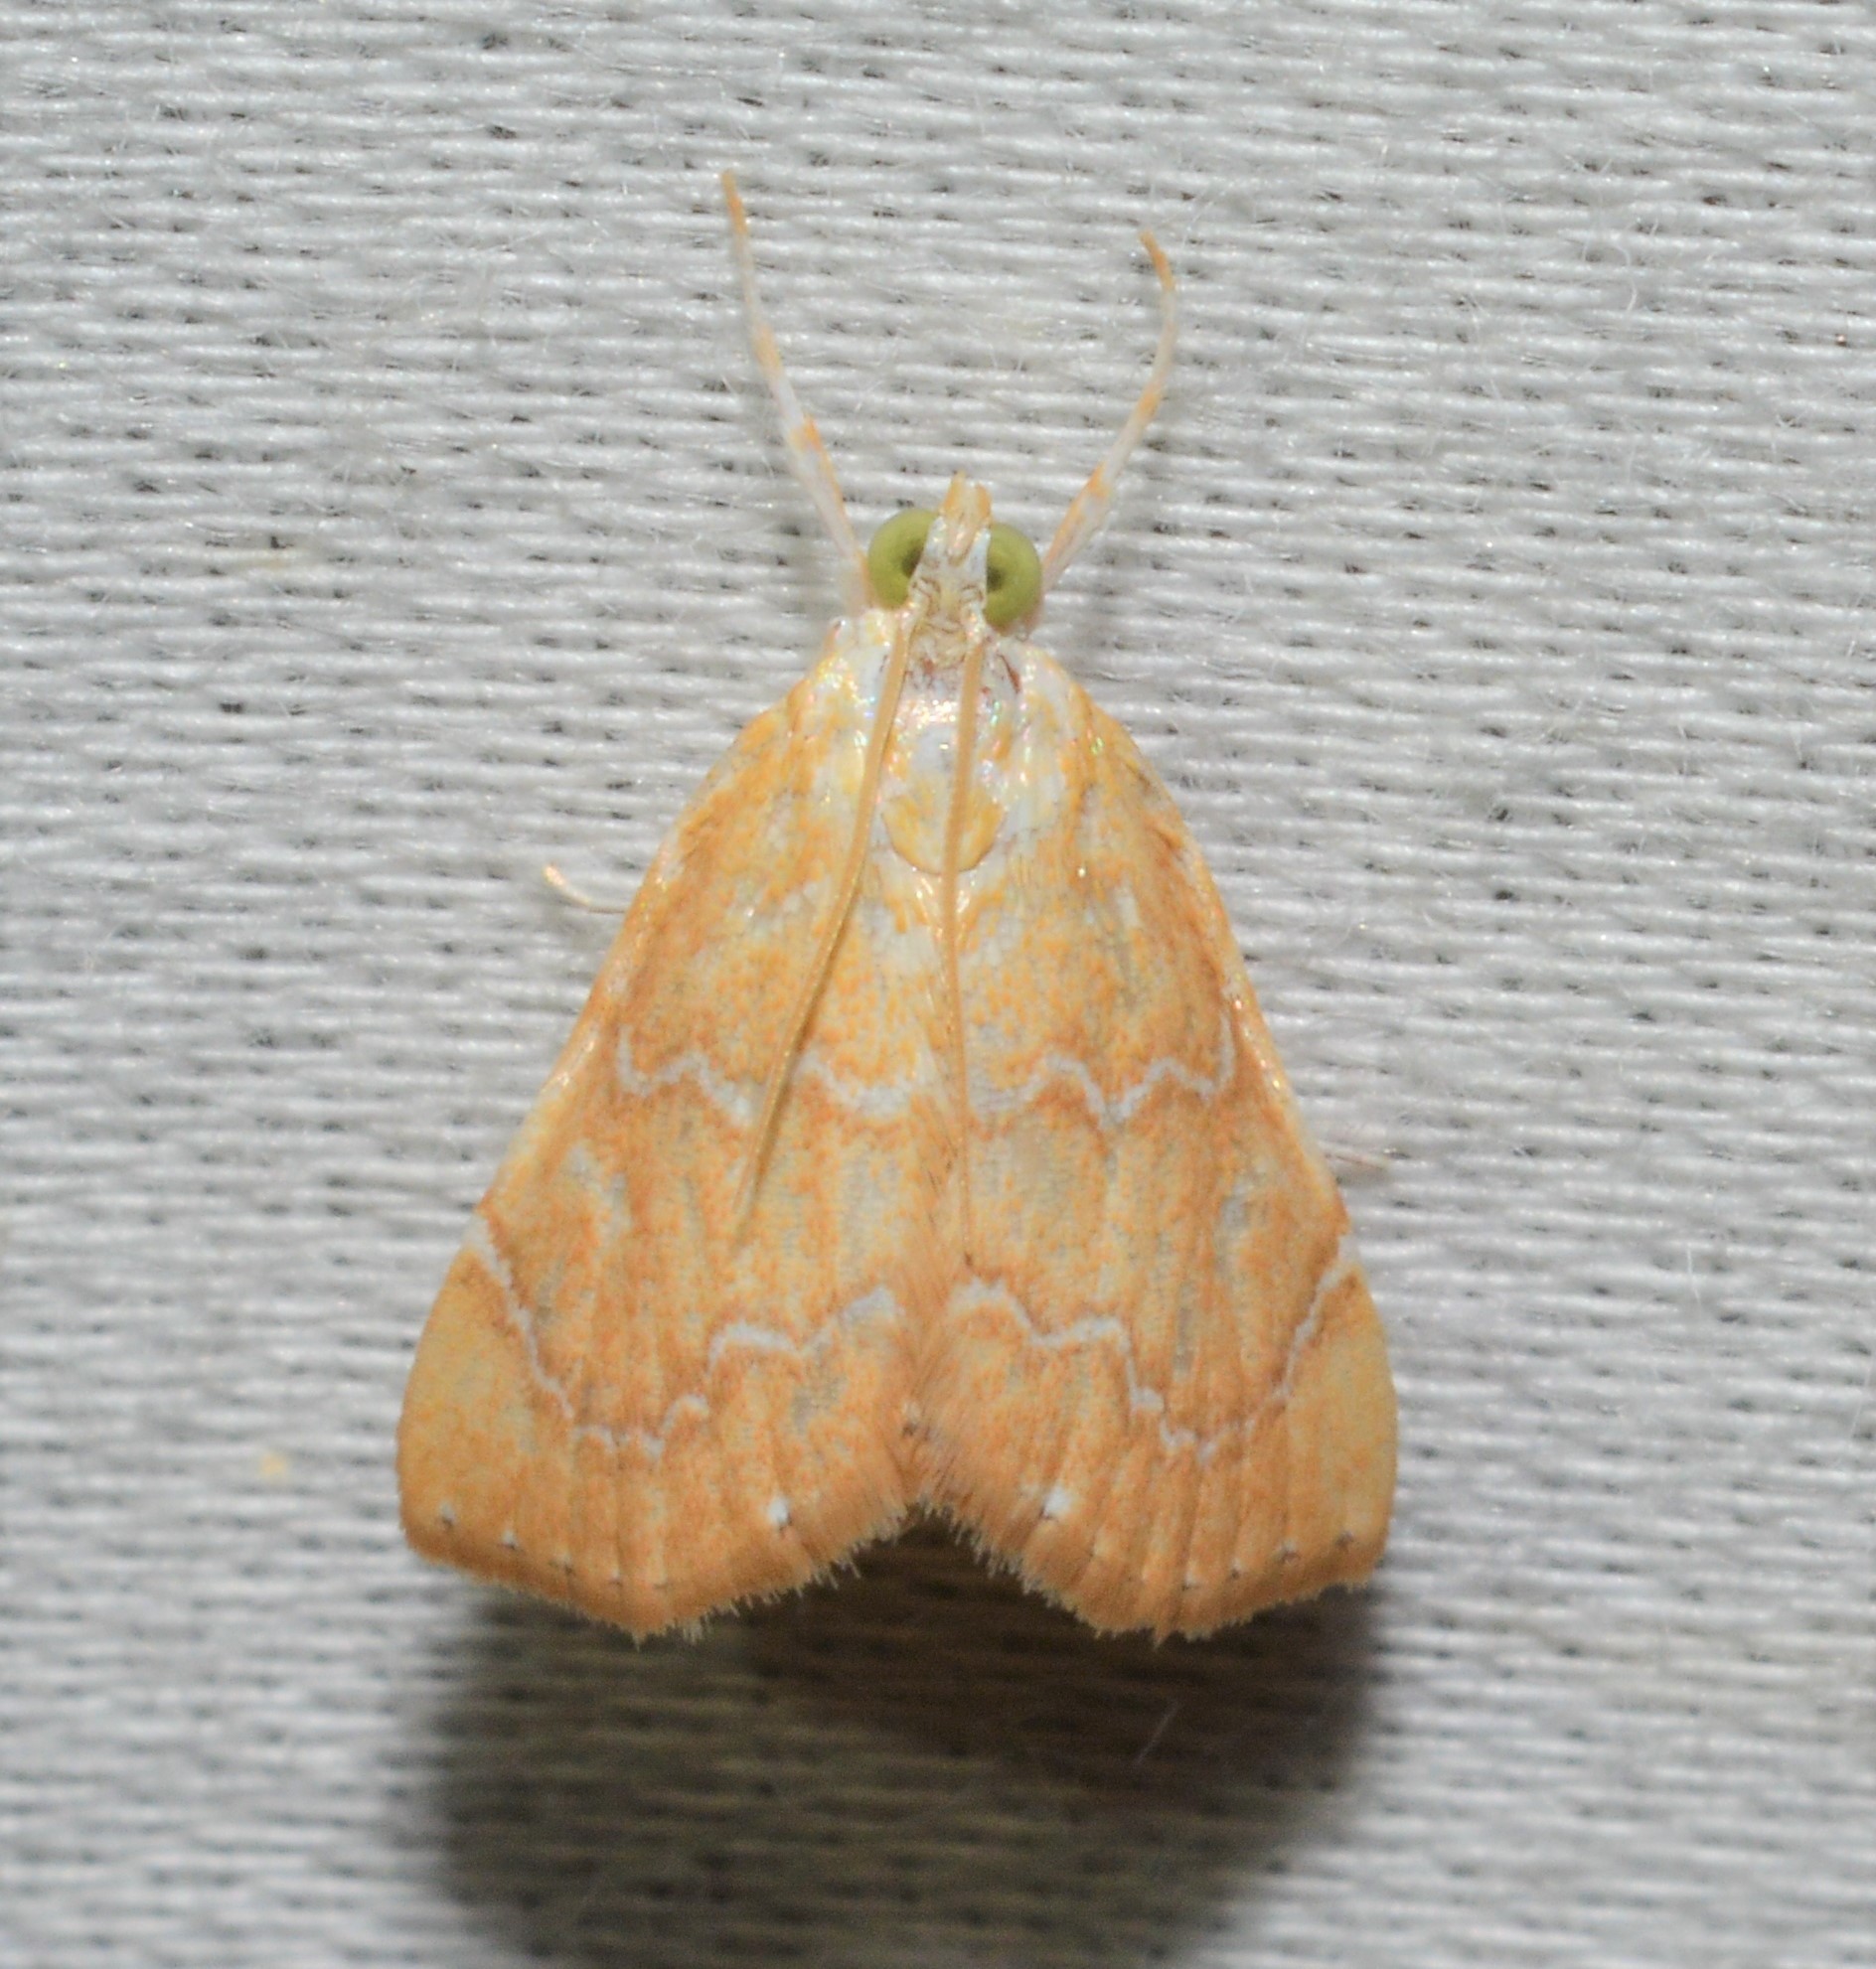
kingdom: Animalia
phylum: Arthropoda
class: Insecta
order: Lepidoptera
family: Crambidae
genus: Glaphyria
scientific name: Glaphyria sesquistrialis
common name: White-roped glaphyria
